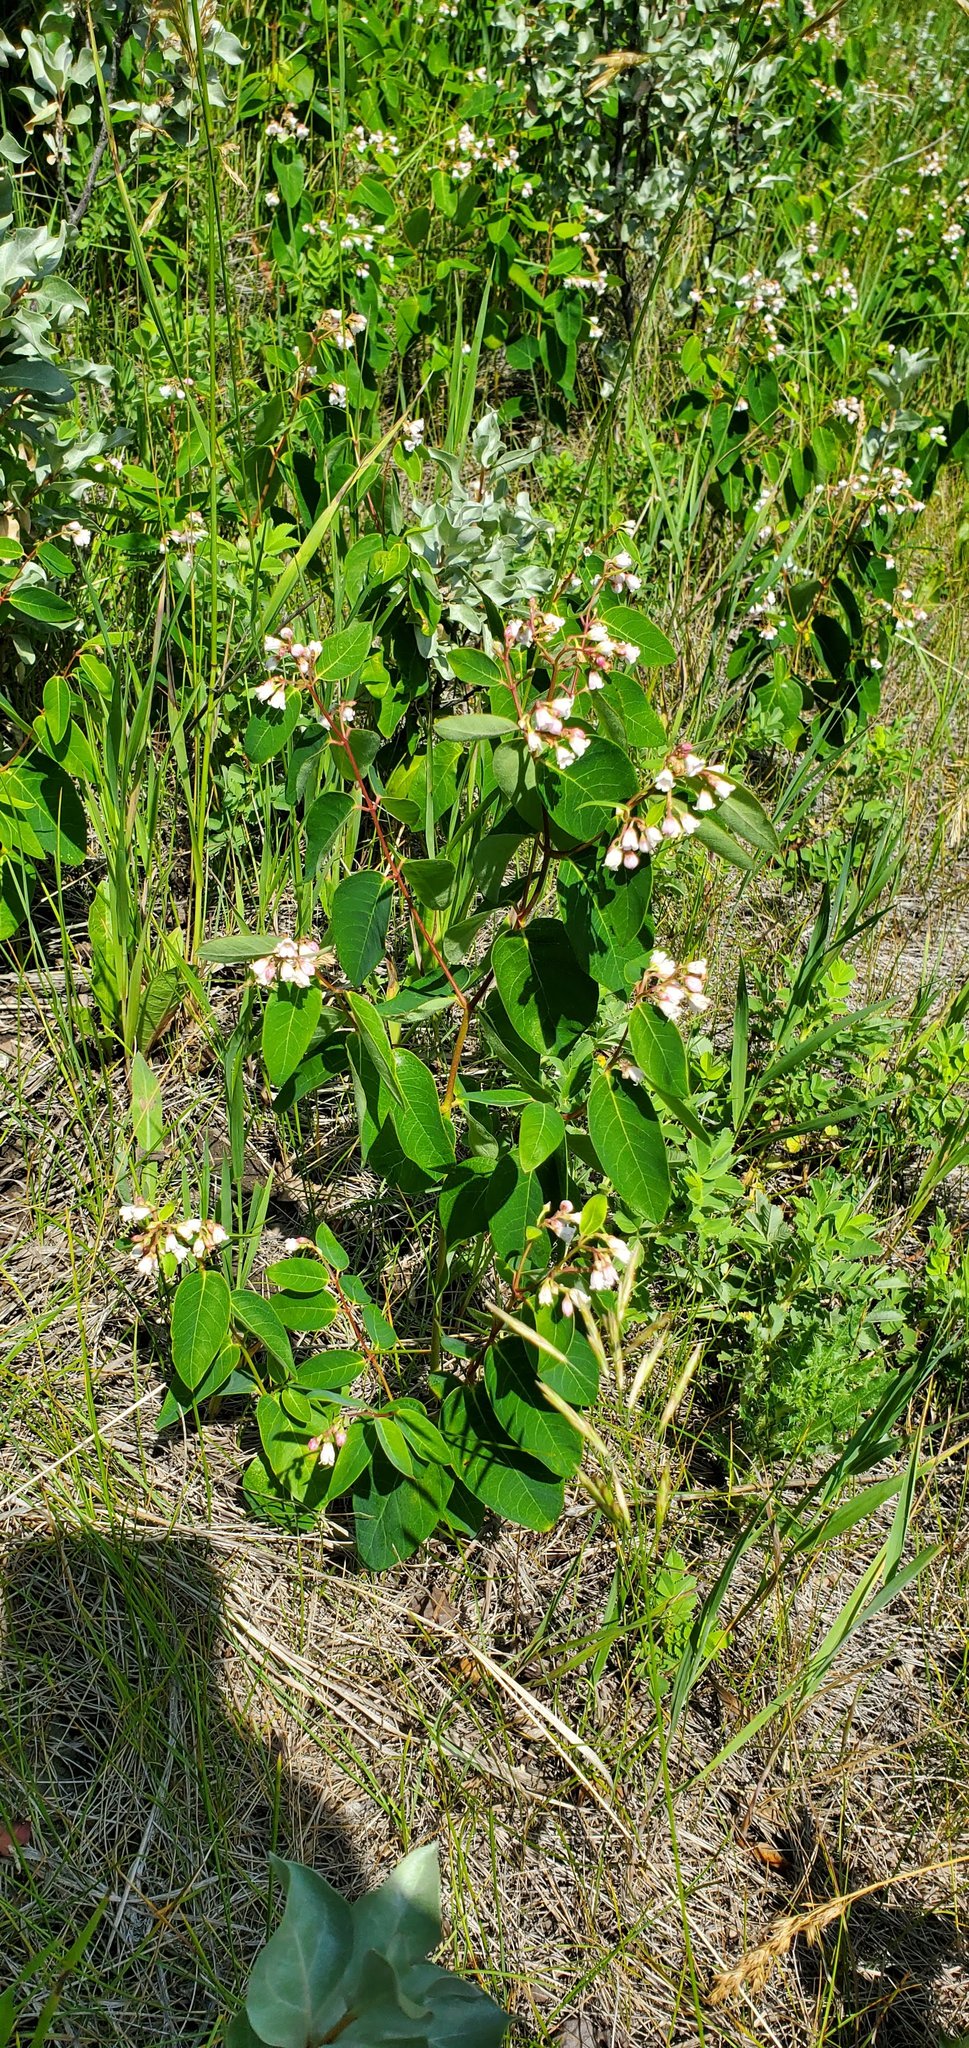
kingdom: Plantae
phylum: Tracheophyta
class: Magnoliopsida
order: Gentianales
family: Apocynaceae
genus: Apocynum
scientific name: Apocynum androsaemifolium
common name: Spreading dogbane
